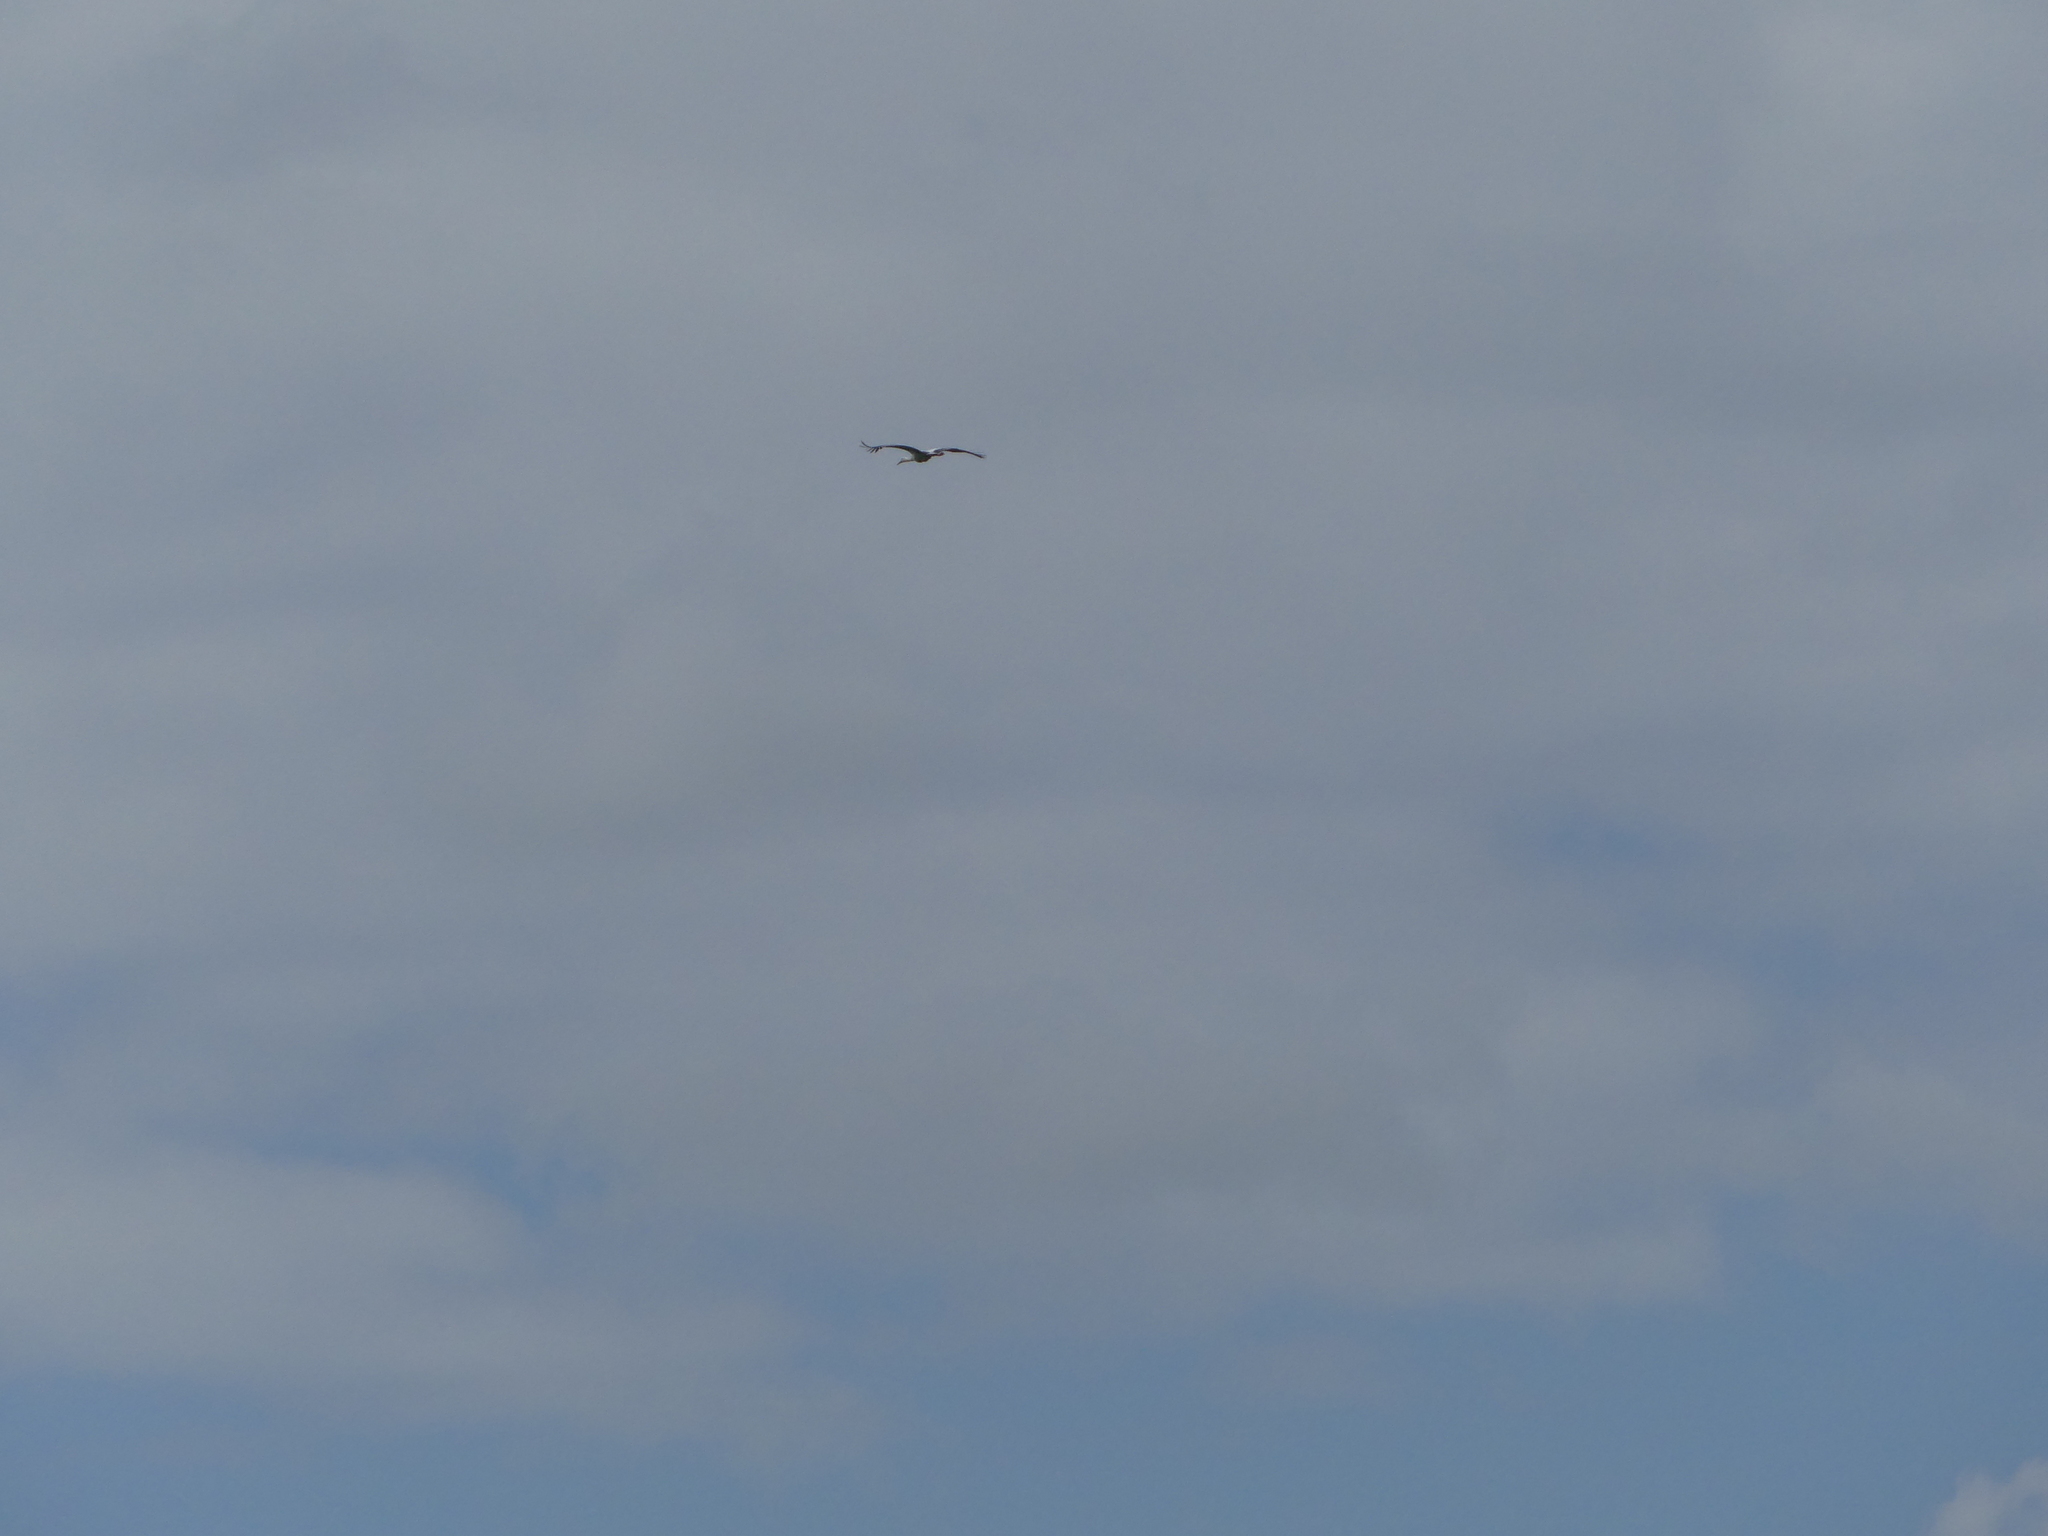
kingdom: Animalia
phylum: Chordata
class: Aves
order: Ciconiiformes
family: Ciconiidae
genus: Ciconia
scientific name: Ciconia ciconia
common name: White stork
